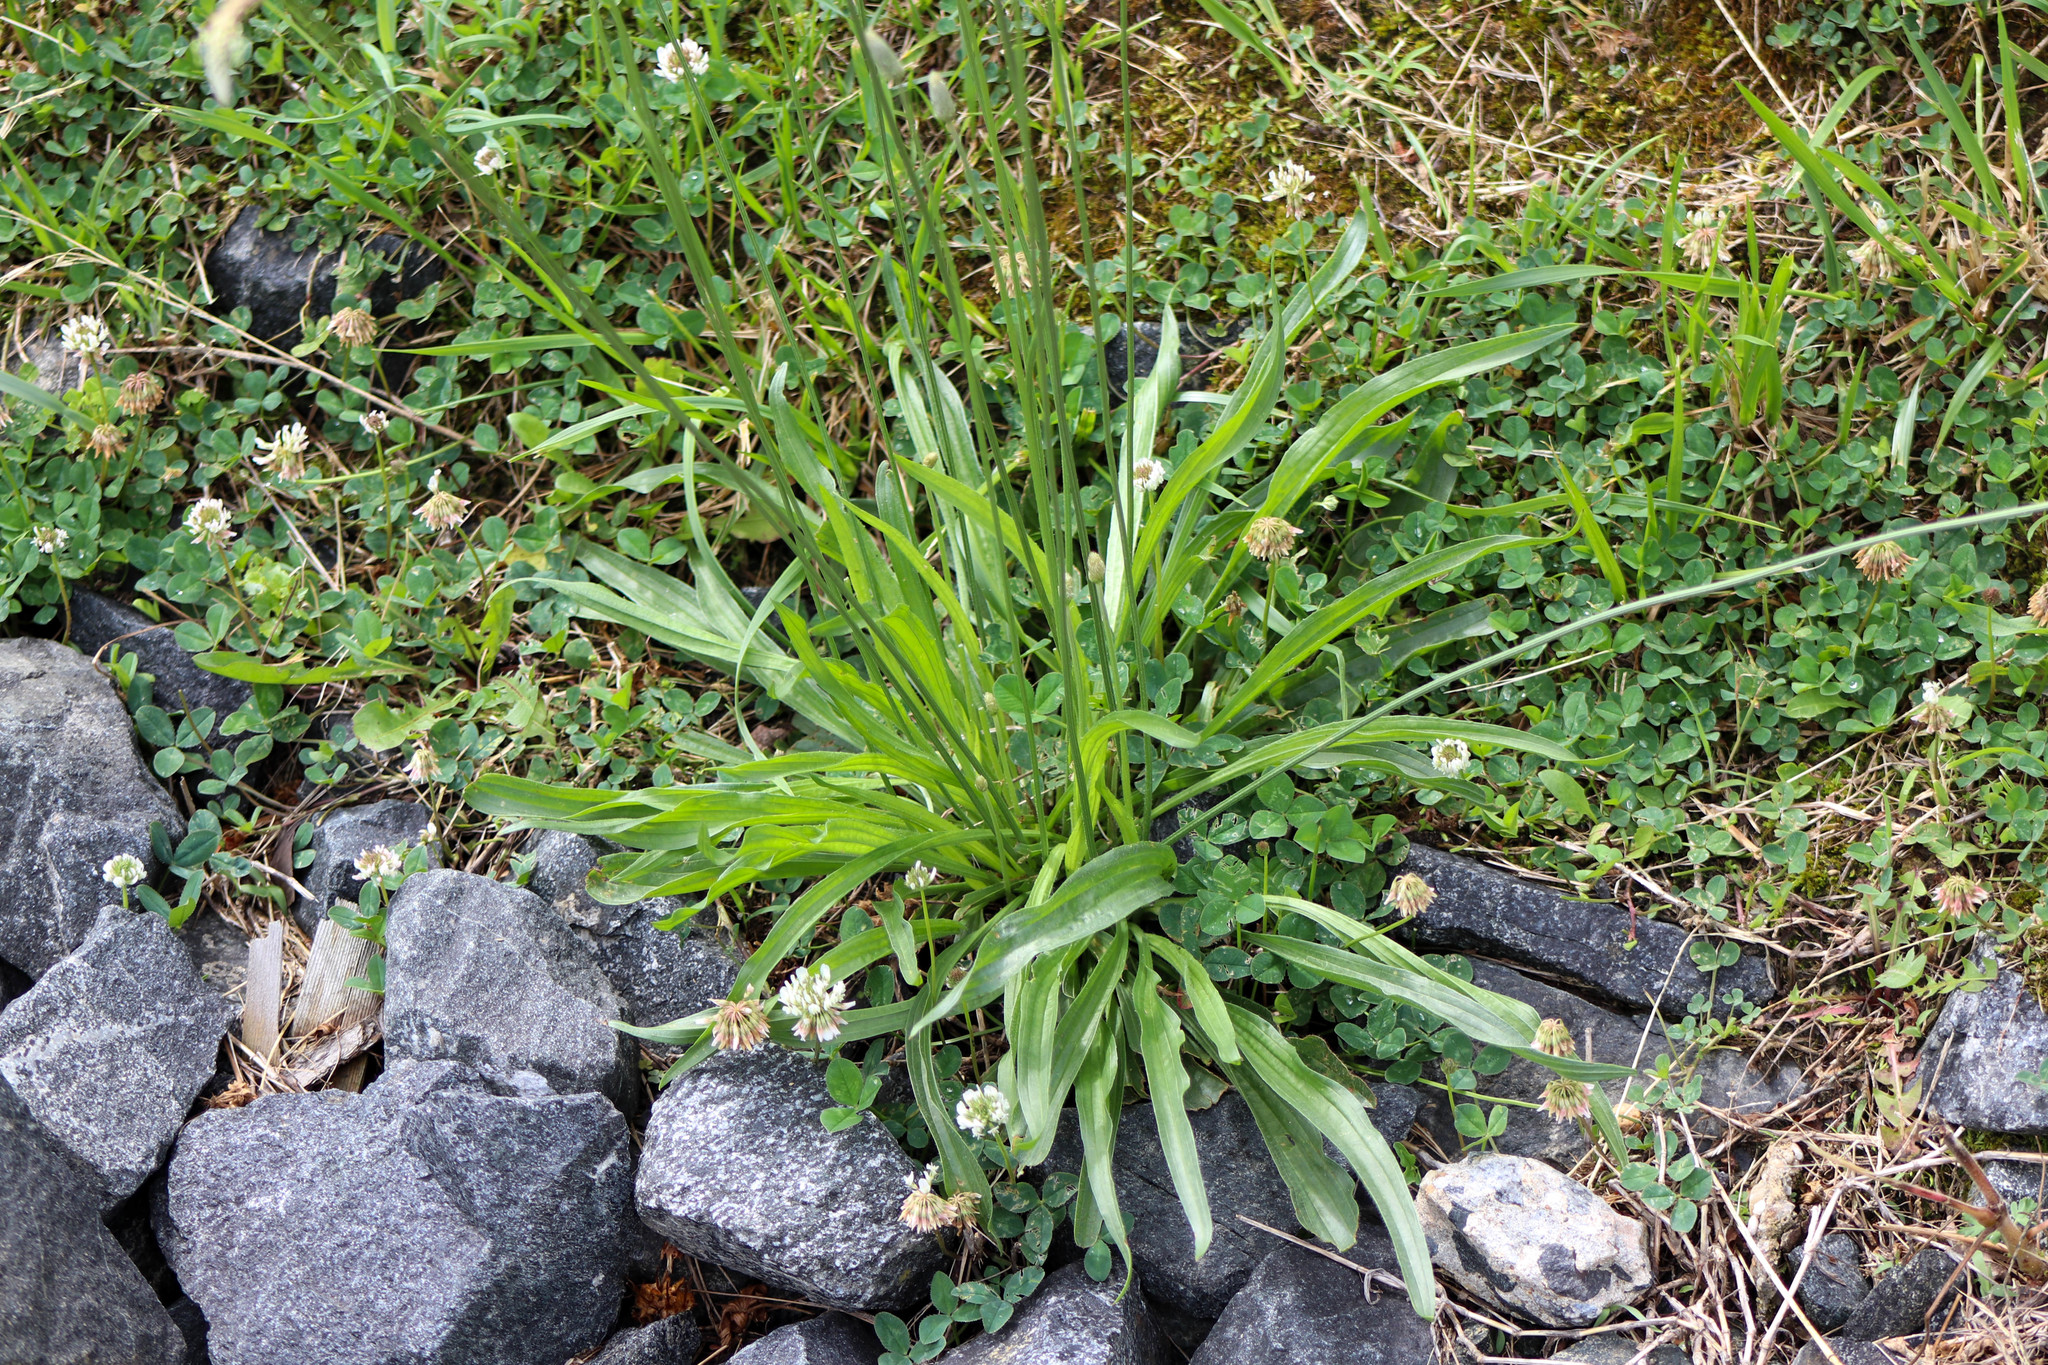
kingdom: Plantae
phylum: Tracheophyta
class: Magnoliopsida
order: Lamiales
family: Plantaginaceae
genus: Plantago
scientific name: Plantago lanceolata
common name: Ribwort plantain
